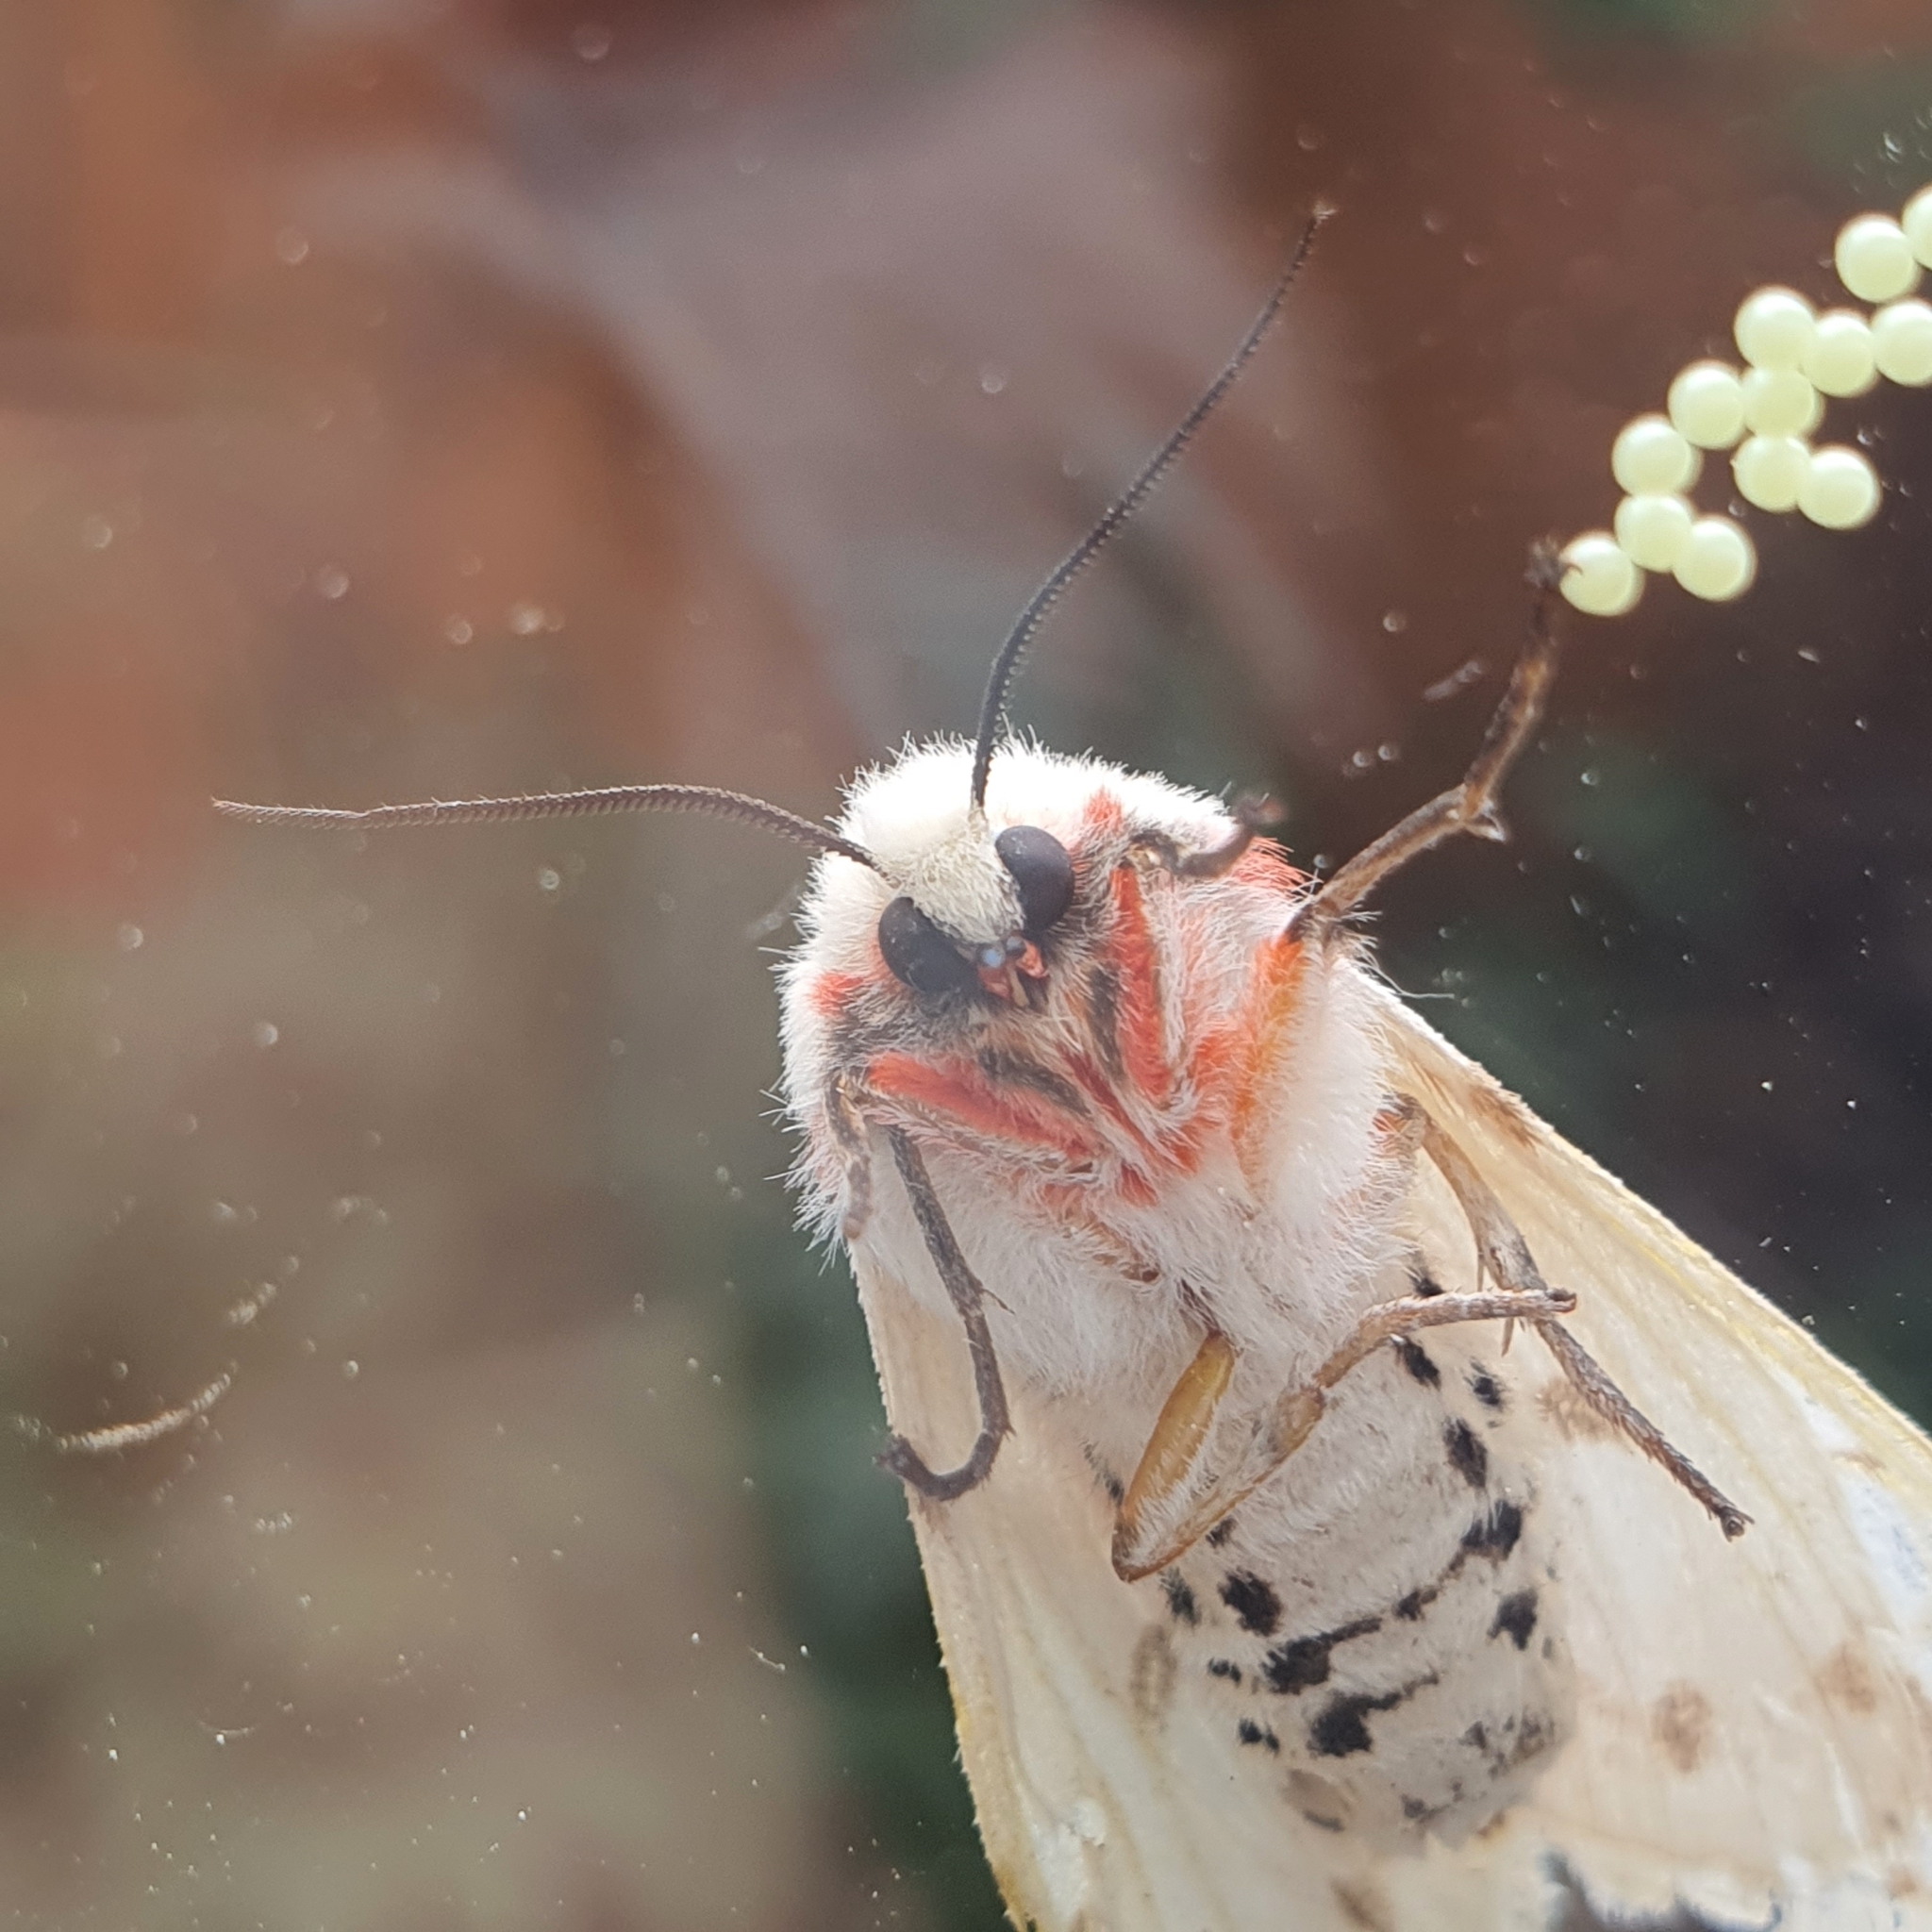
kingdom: Animalia
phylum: Arthropoda
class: Insecta
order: Lepidoptera
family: Erebidae
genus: Ardices
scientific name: Ardices canescens
